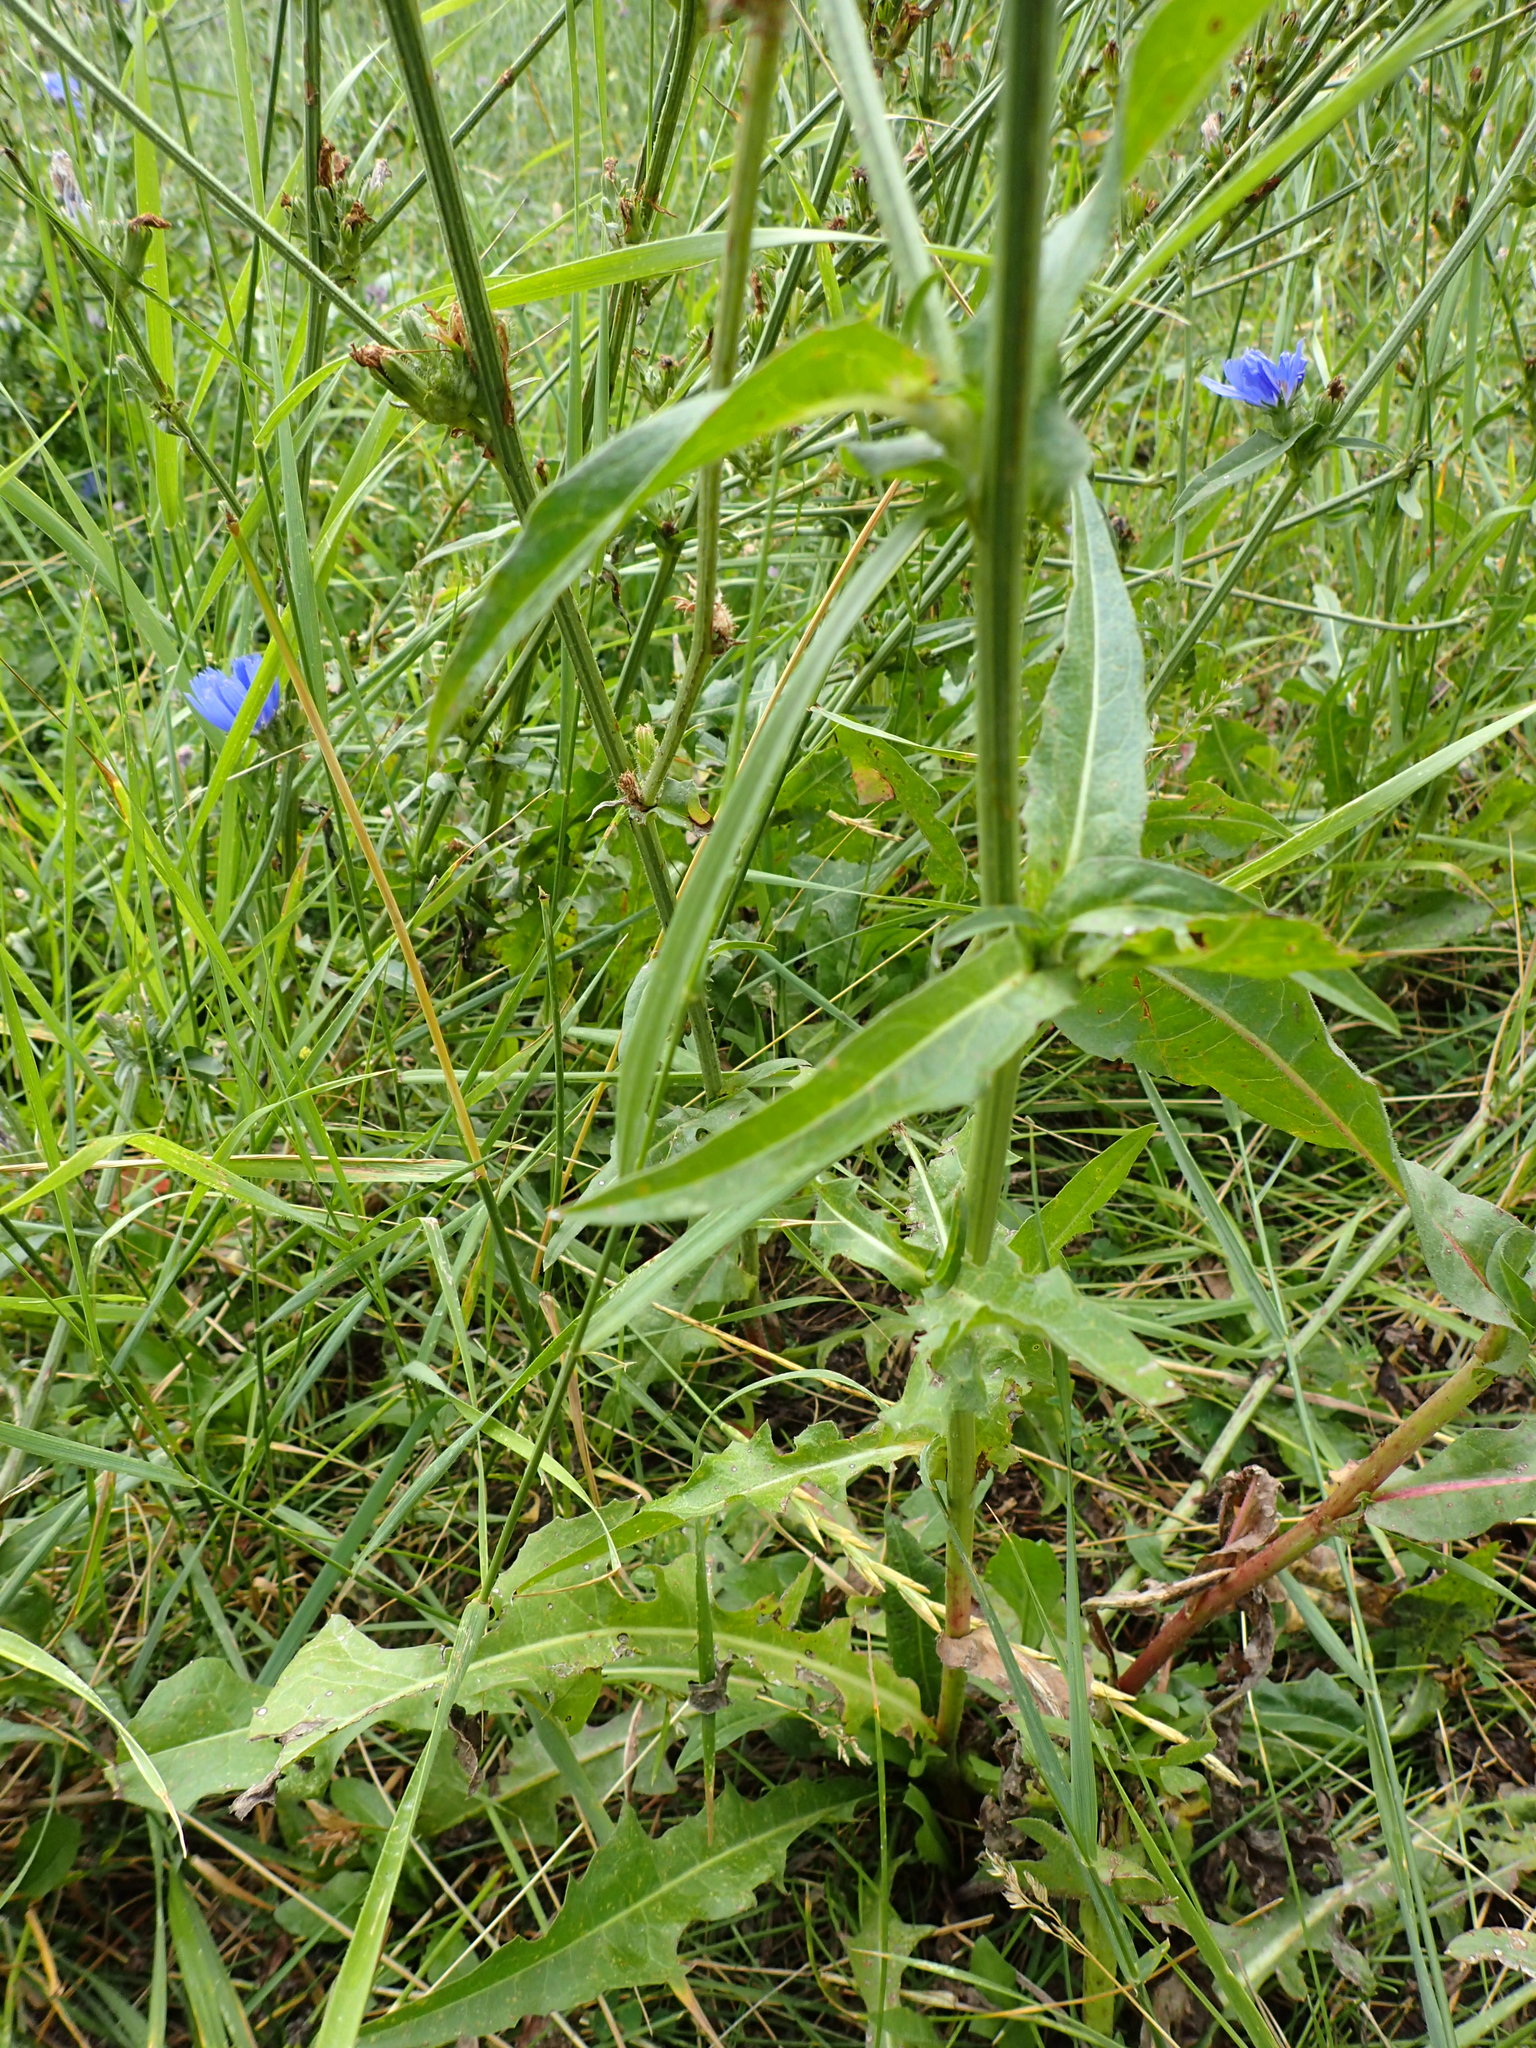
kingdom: Plantae
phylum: Tracheophyta
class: Magnoliopsida
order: Asterales
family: Asteraceae
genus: Cichorium
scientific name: Cichorium intybus
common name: Chicory
